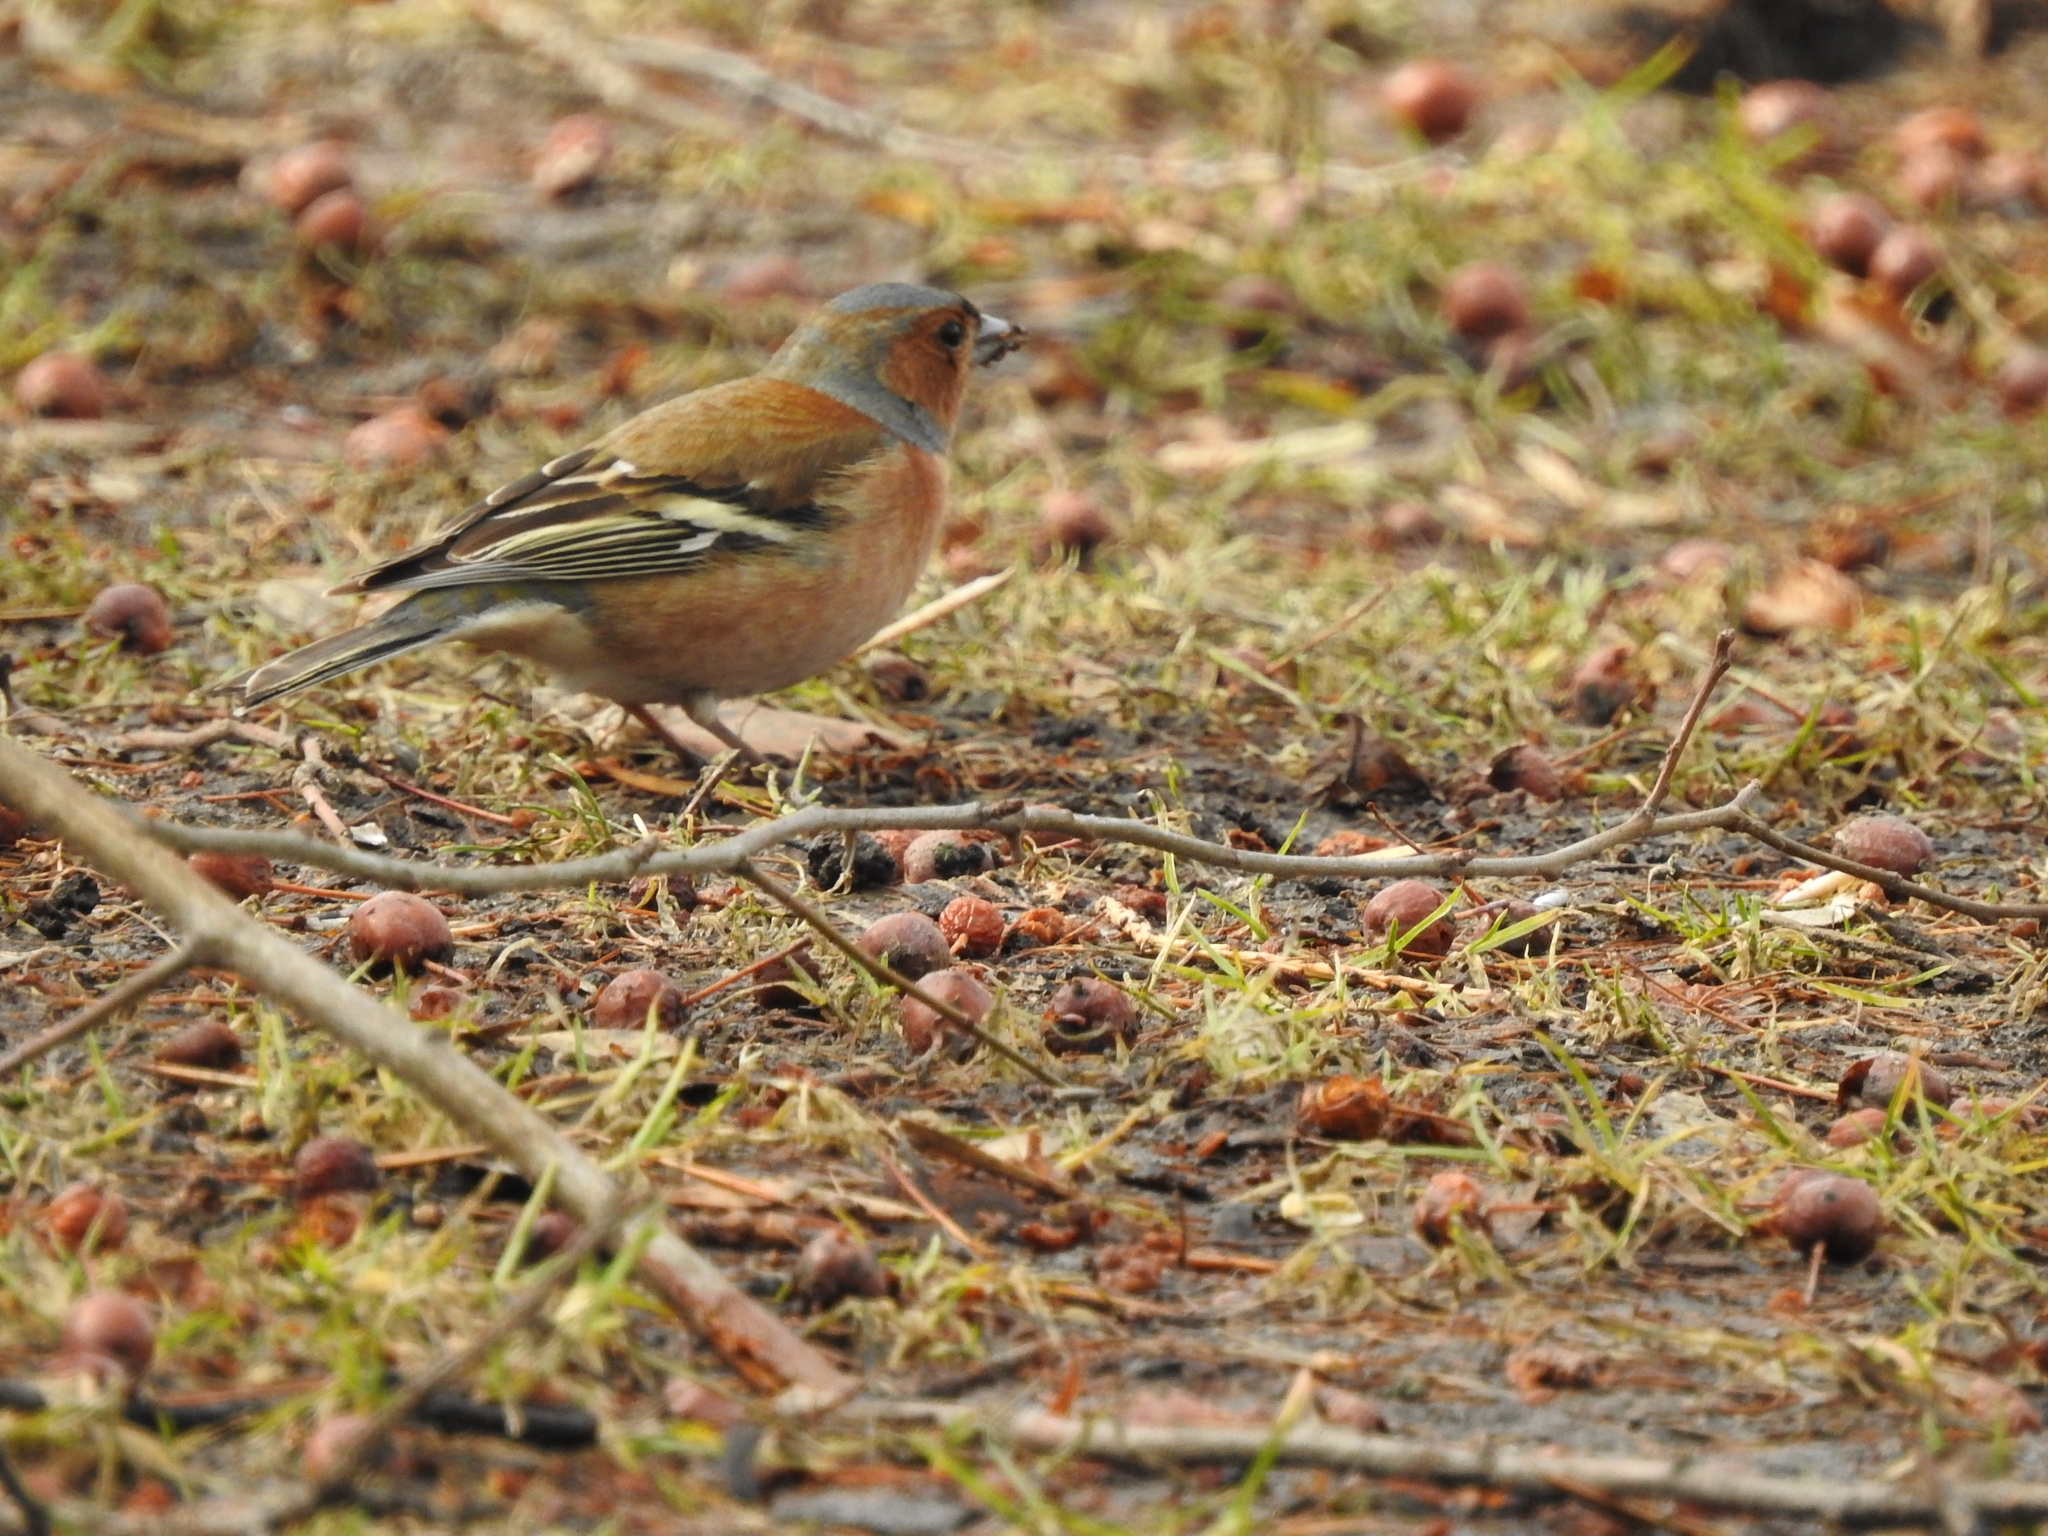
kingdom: Animalia
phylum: Chordata
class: Aves
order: Passeriformes
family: Fringillidae
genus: Fringilla
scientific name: Fringilla coelebs
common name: Common chaffinch
